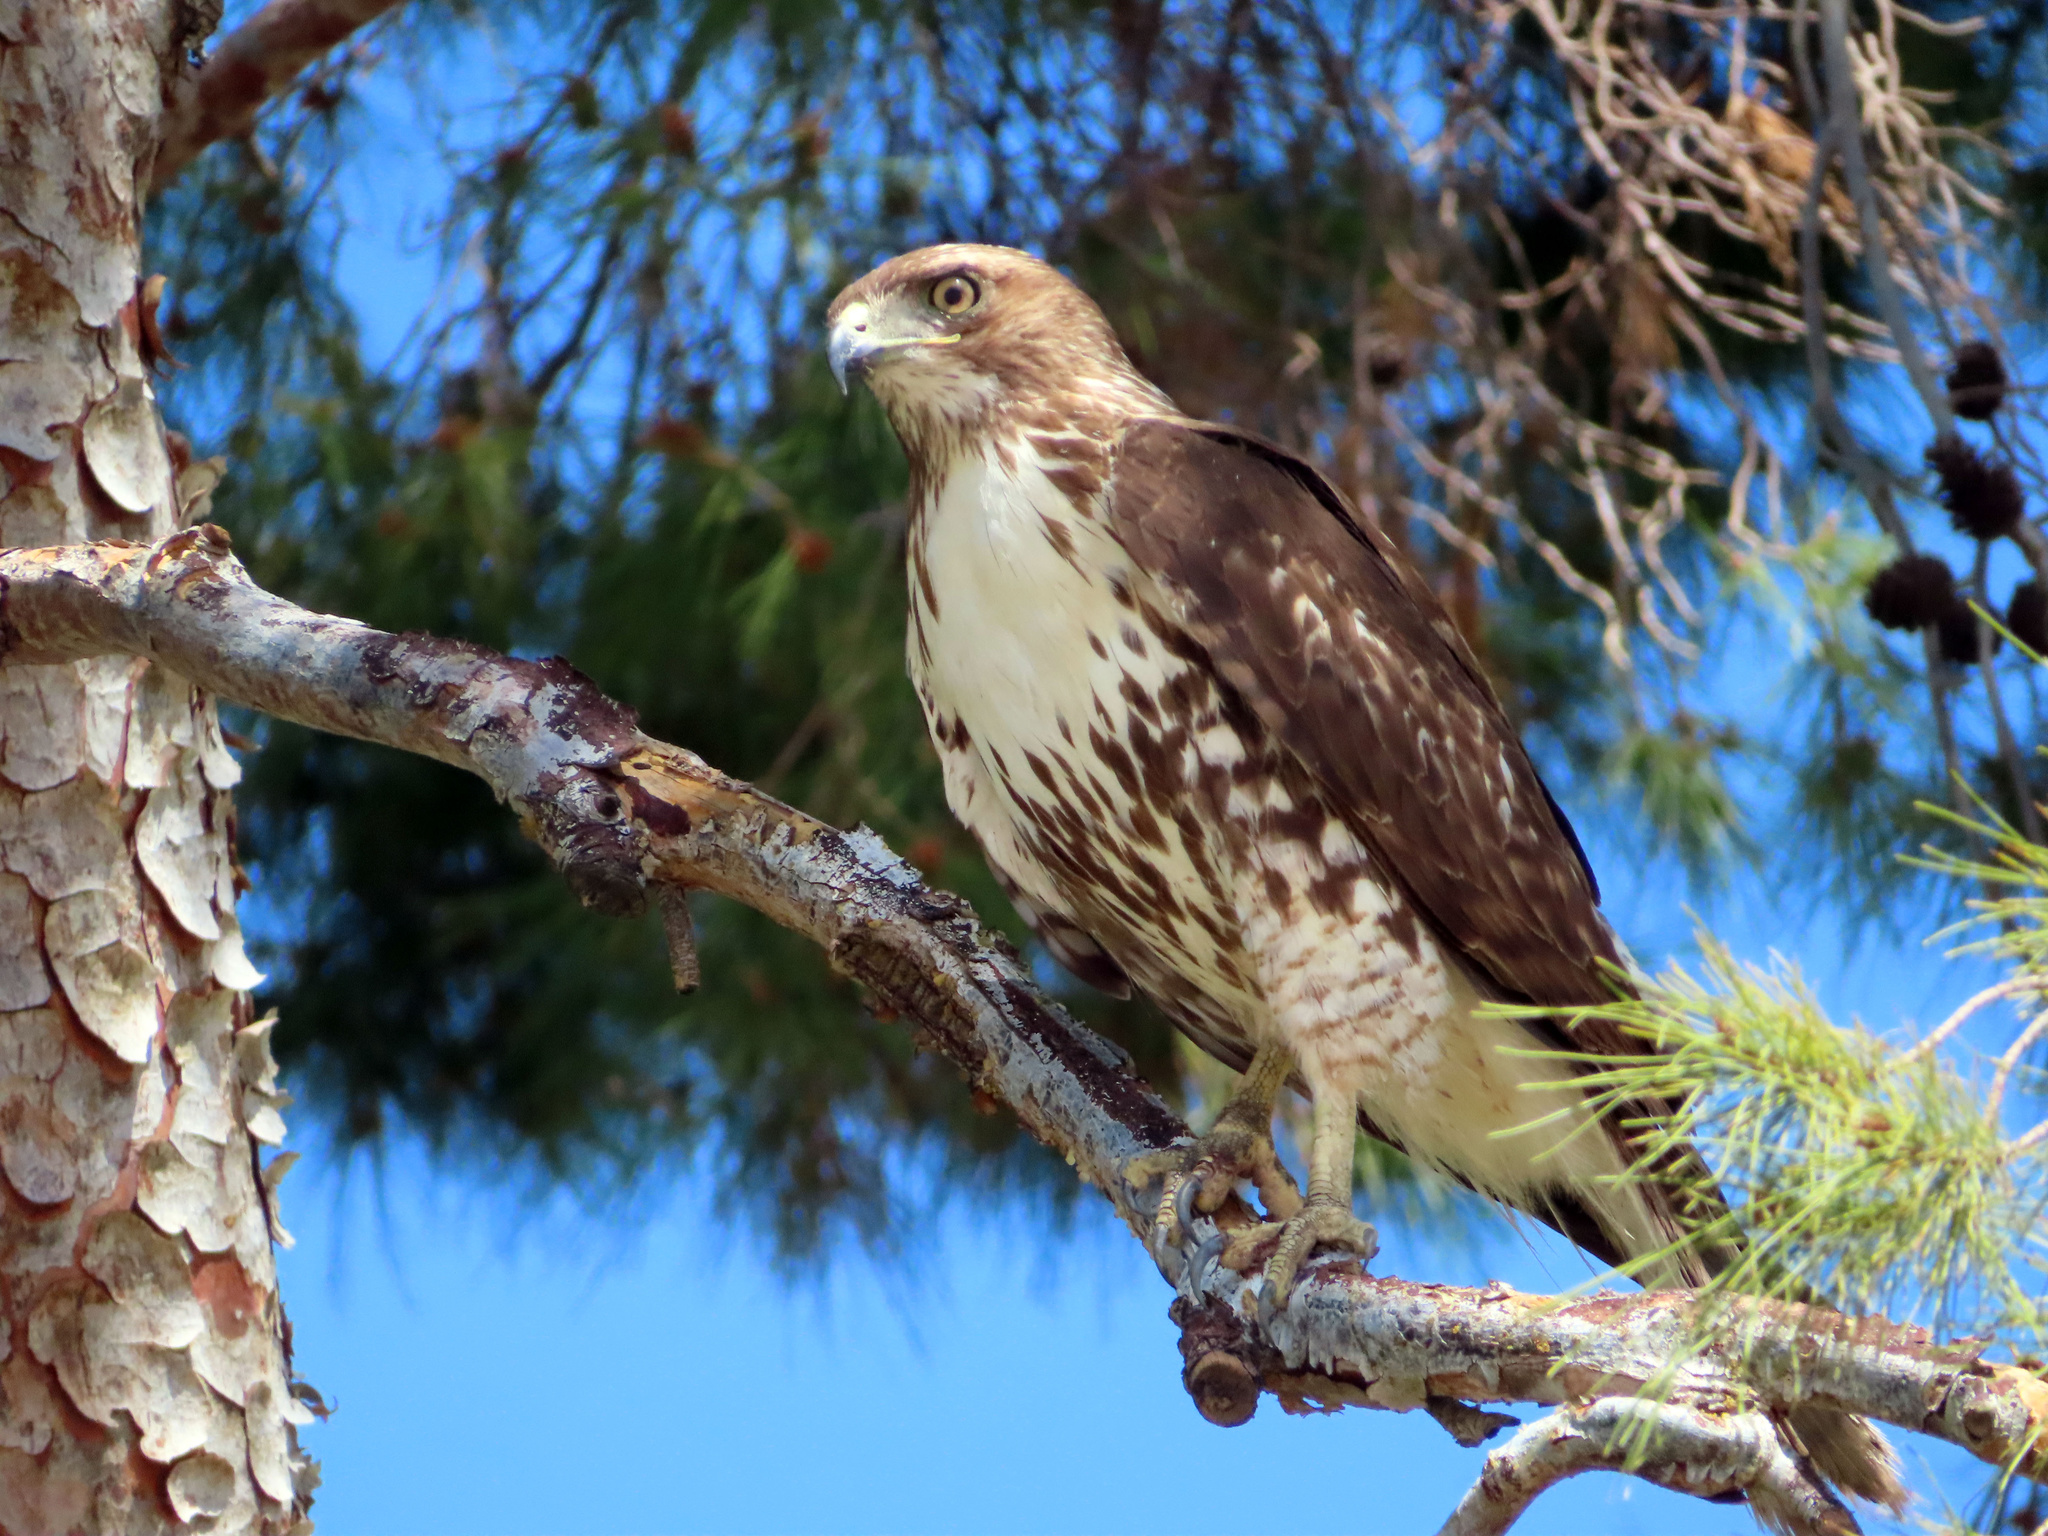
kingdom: Animalia
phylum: Chordata
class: Aves
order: Accipitriformes
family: Accipitridae
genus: Buteo
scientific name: Buteo jamaicensis
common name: Red-tailed hawk
